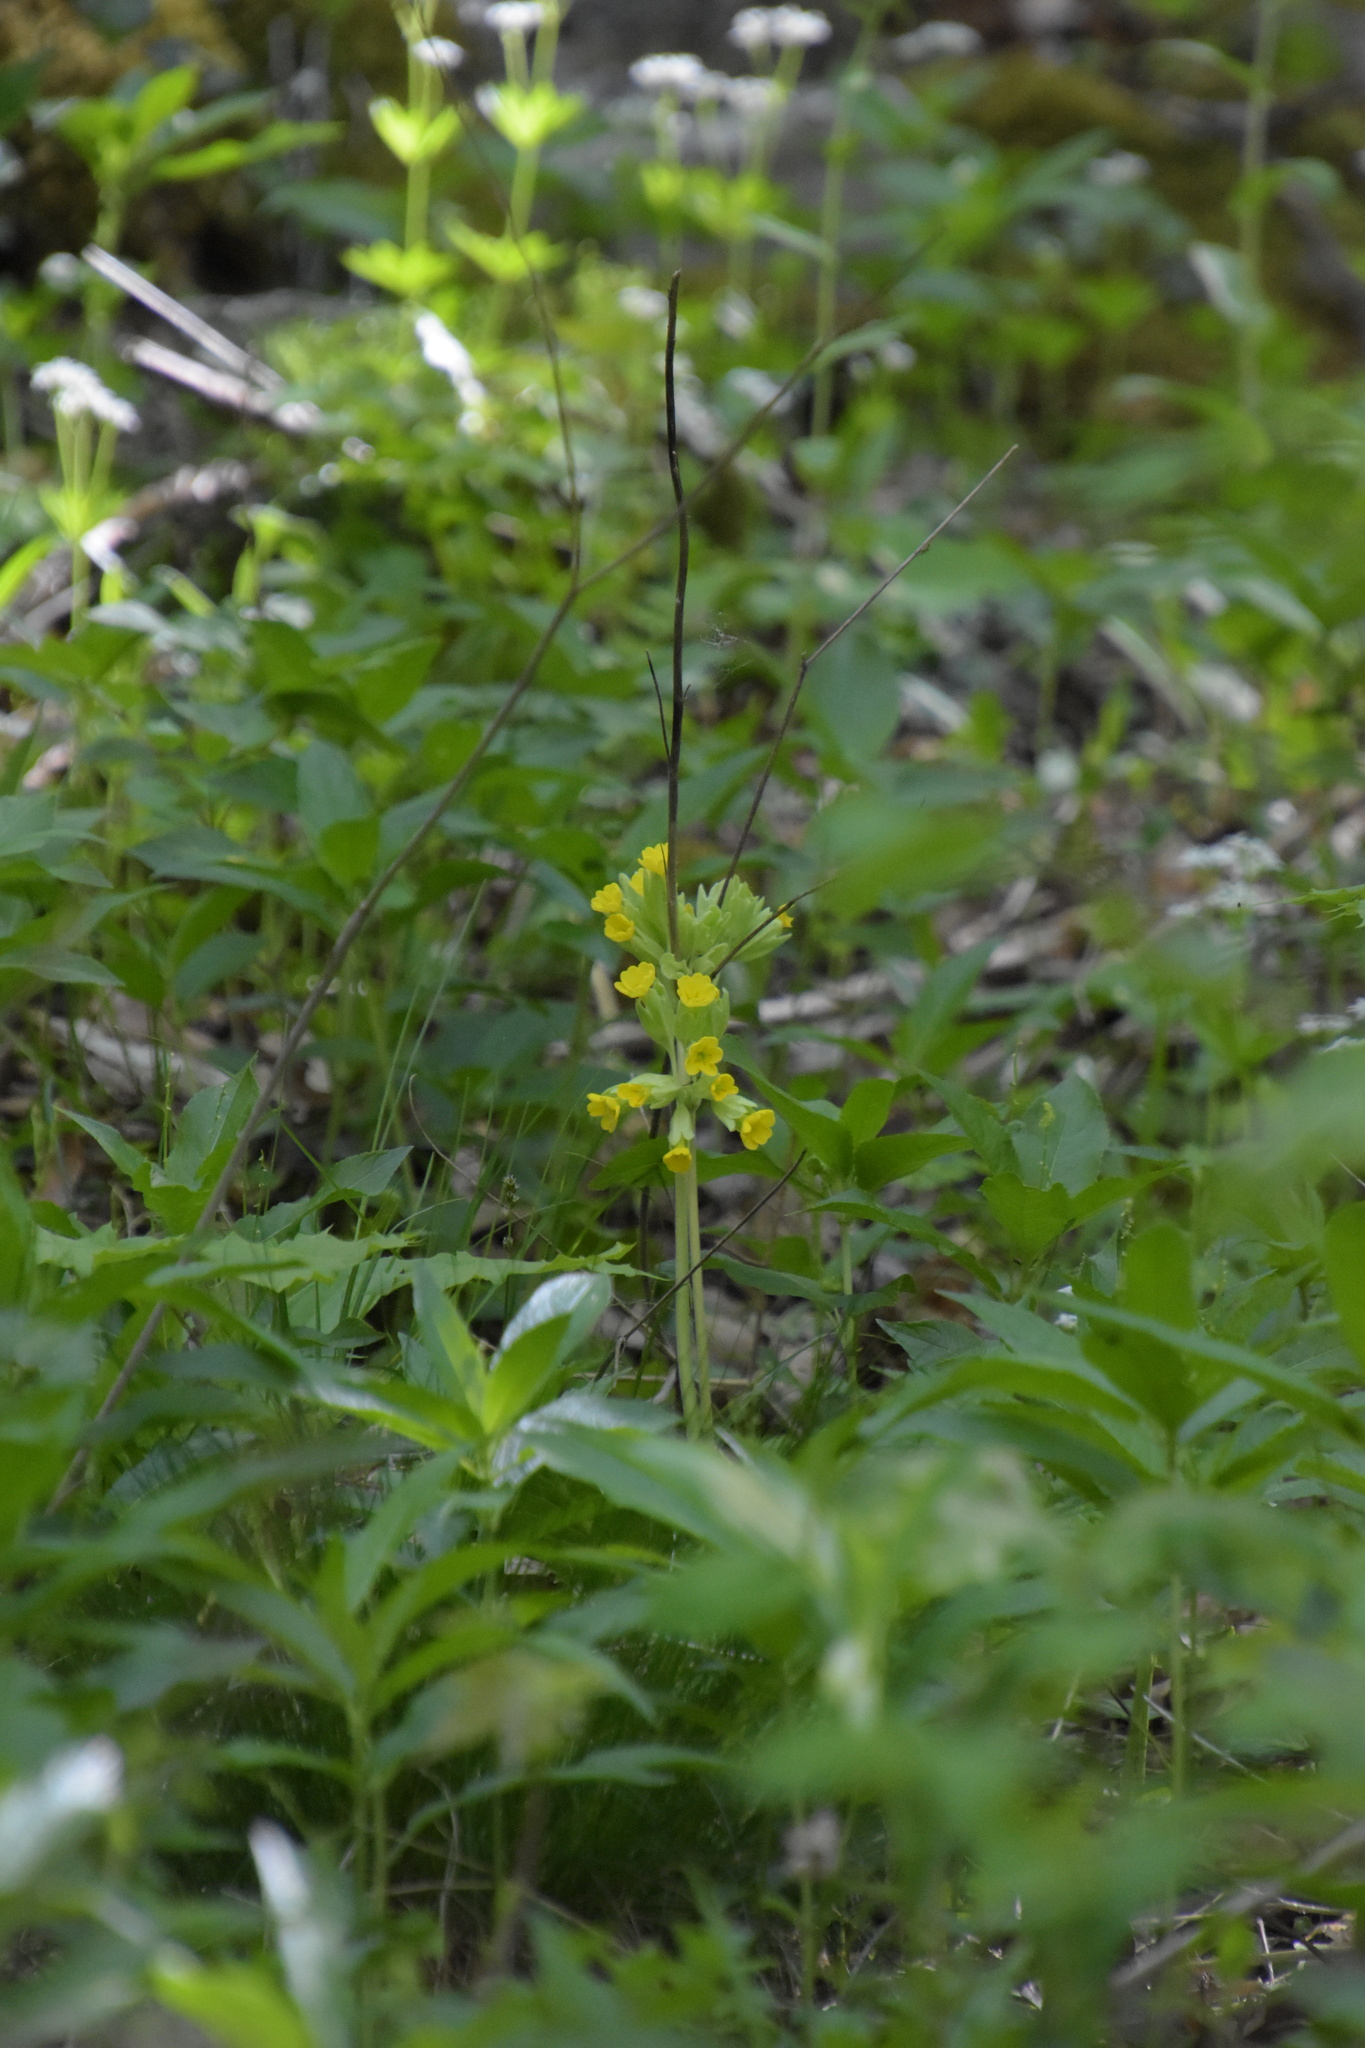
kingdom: Plantae
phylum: Tracheophyta
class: Magnoliopsida
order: Ericales
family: Primulaceae
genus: Primula
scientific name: Primula veris
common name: Cowslip
